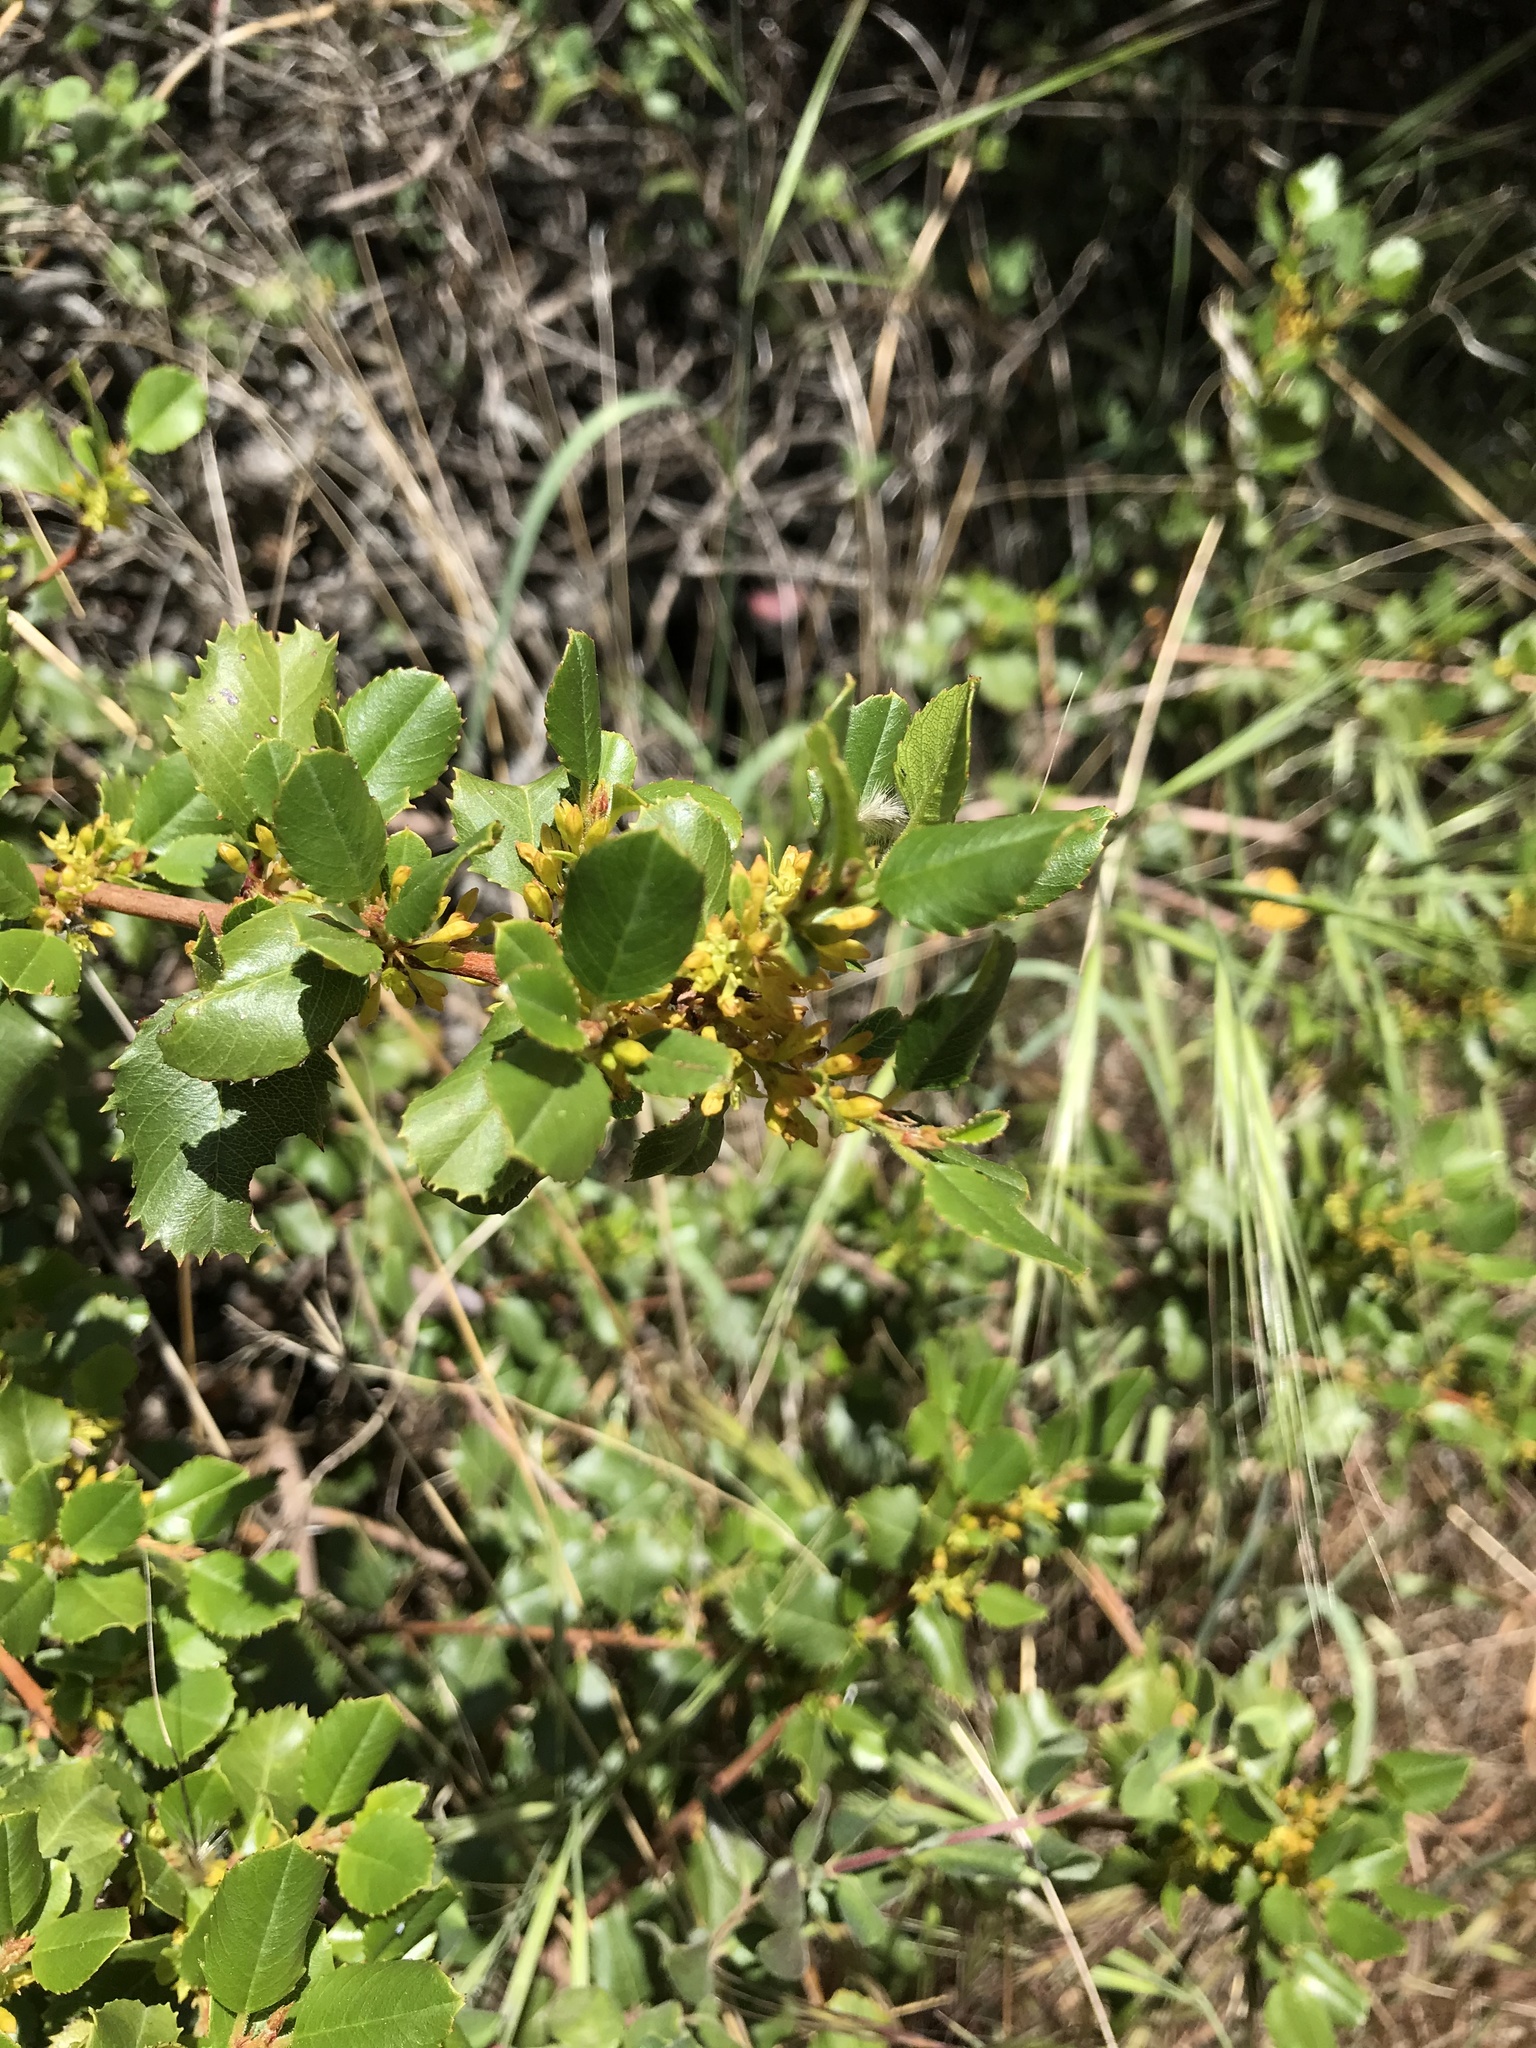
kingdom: Plantae
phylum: Tracheophyta
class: Magnoliopsida
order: Rosales
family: Rhamnaceae
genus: Endotropis
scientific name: Endotropis crocea
